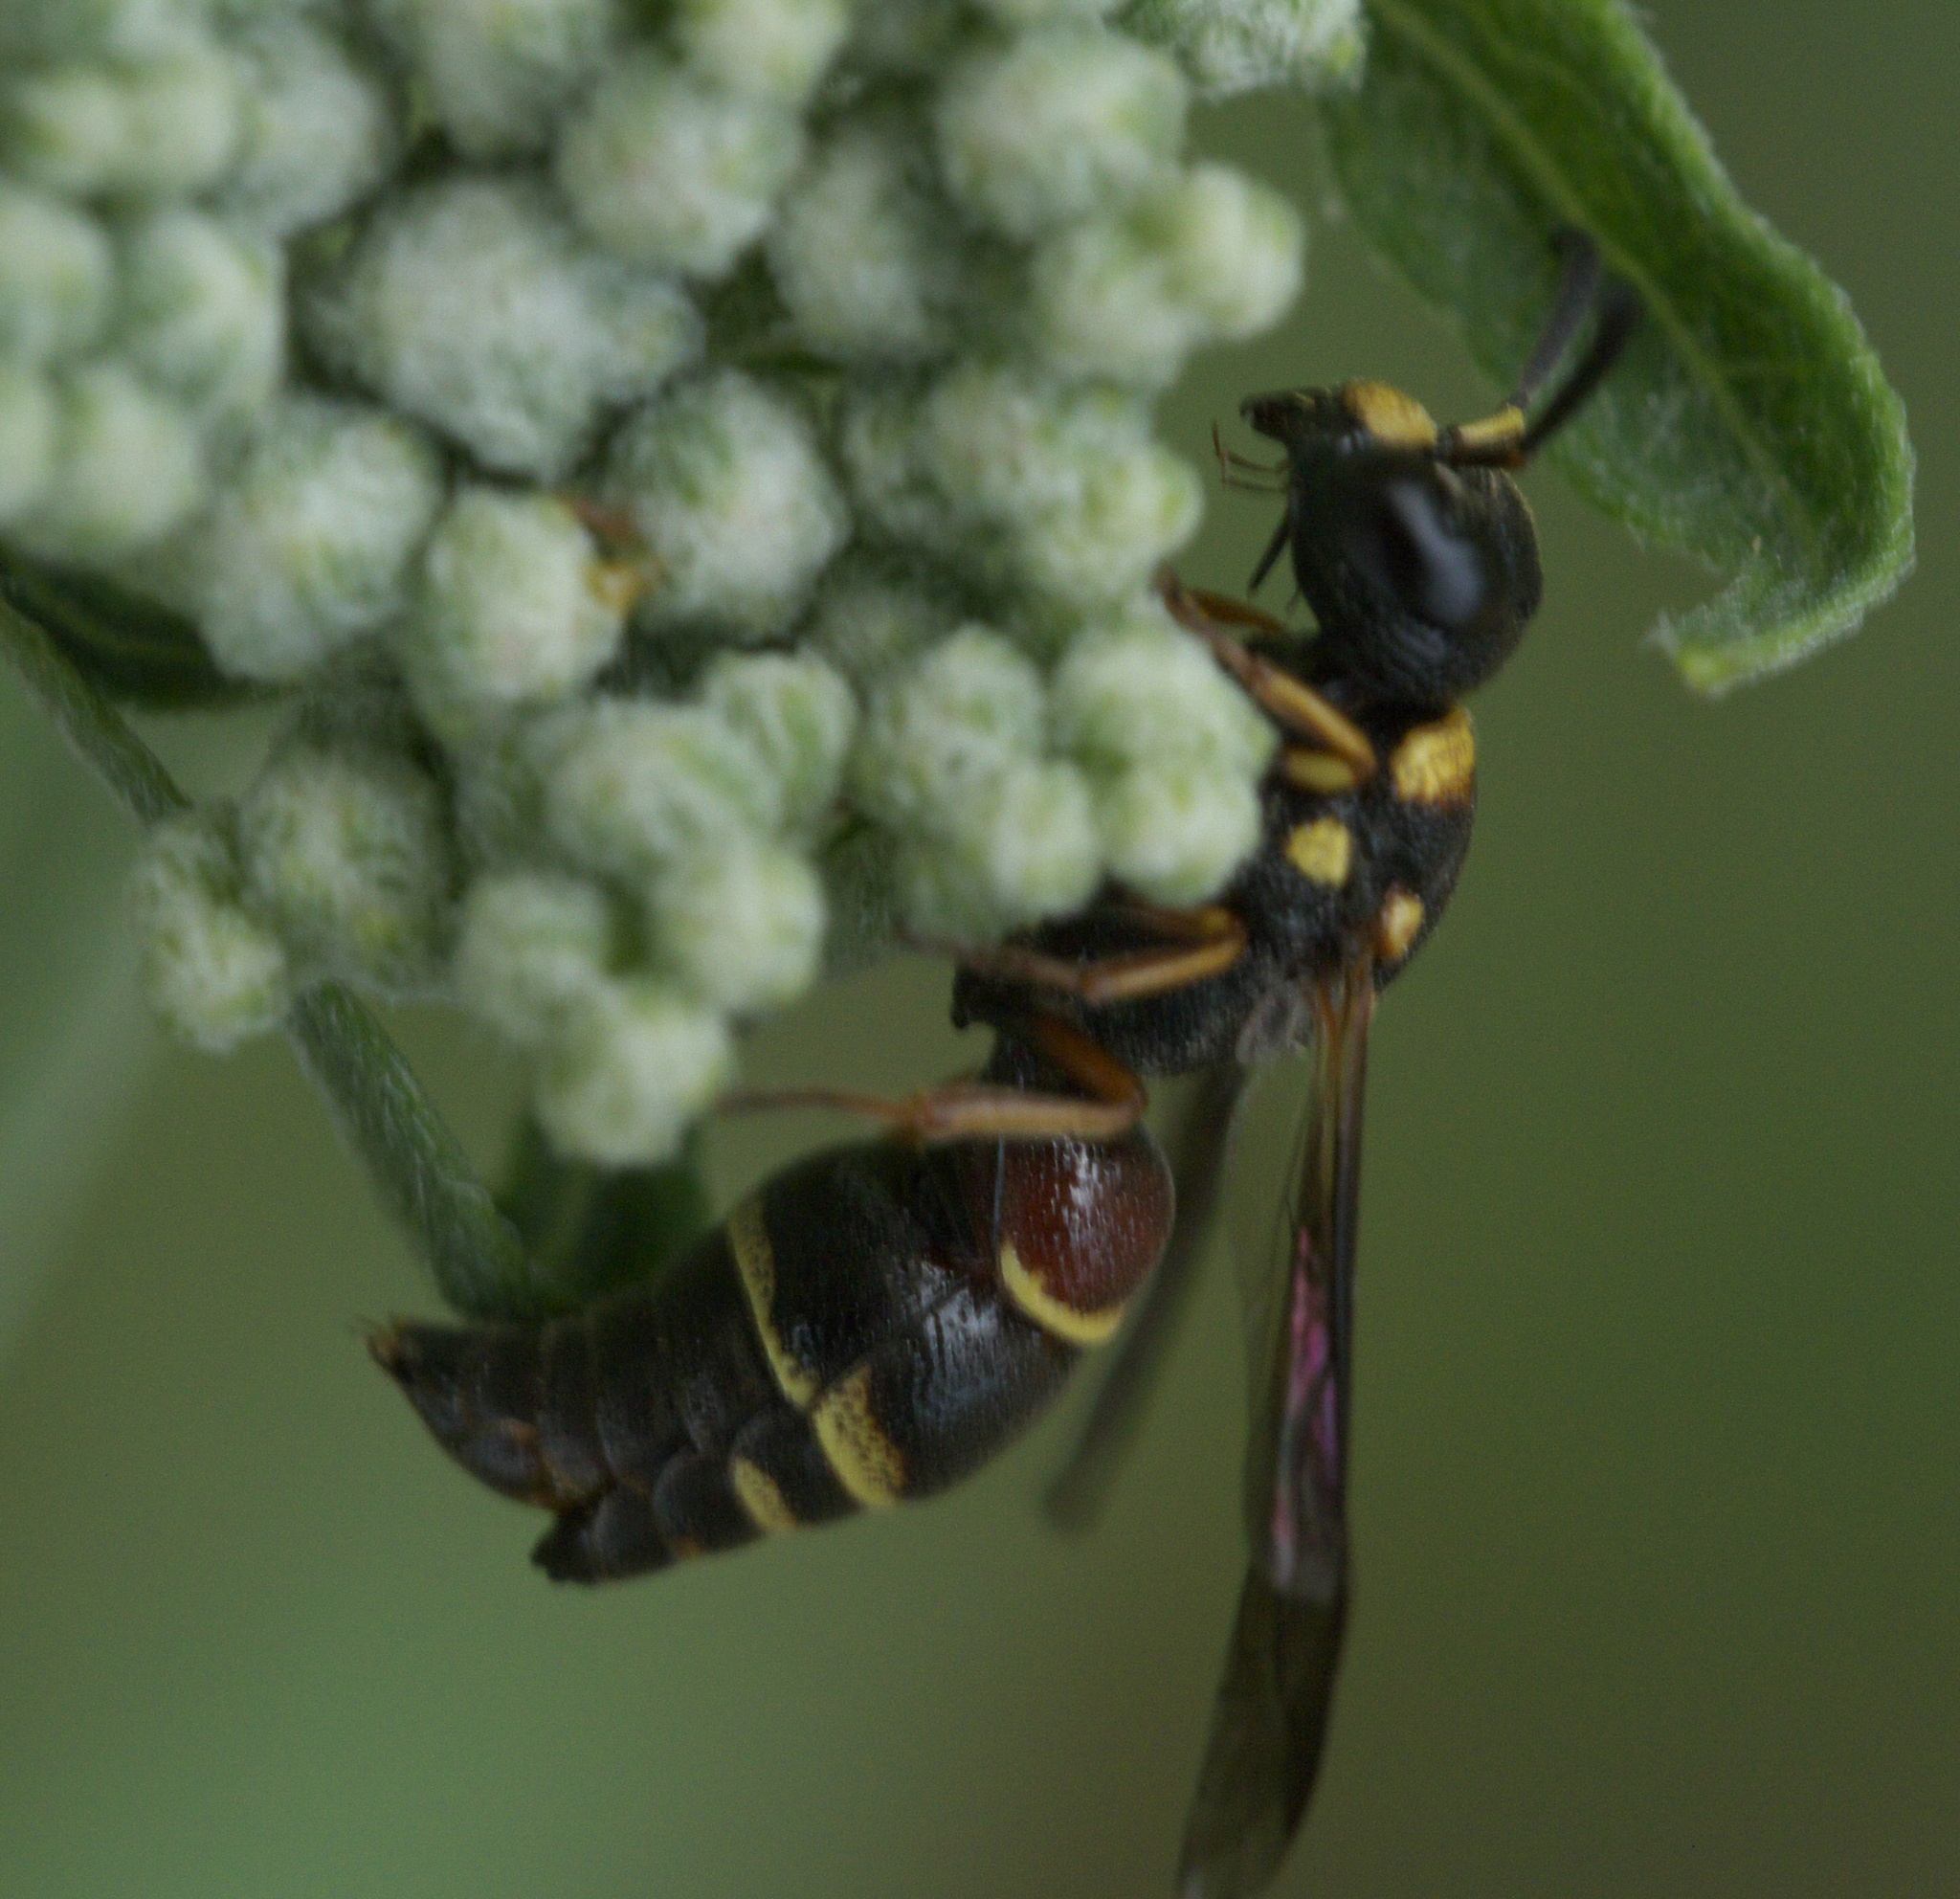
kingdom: Animalia
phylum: Arthropoda
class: Insecta
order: Hymenoptera
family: Eumenidae
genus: Cyrtolabulus
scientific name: Cyrtolabulus mutinensis
